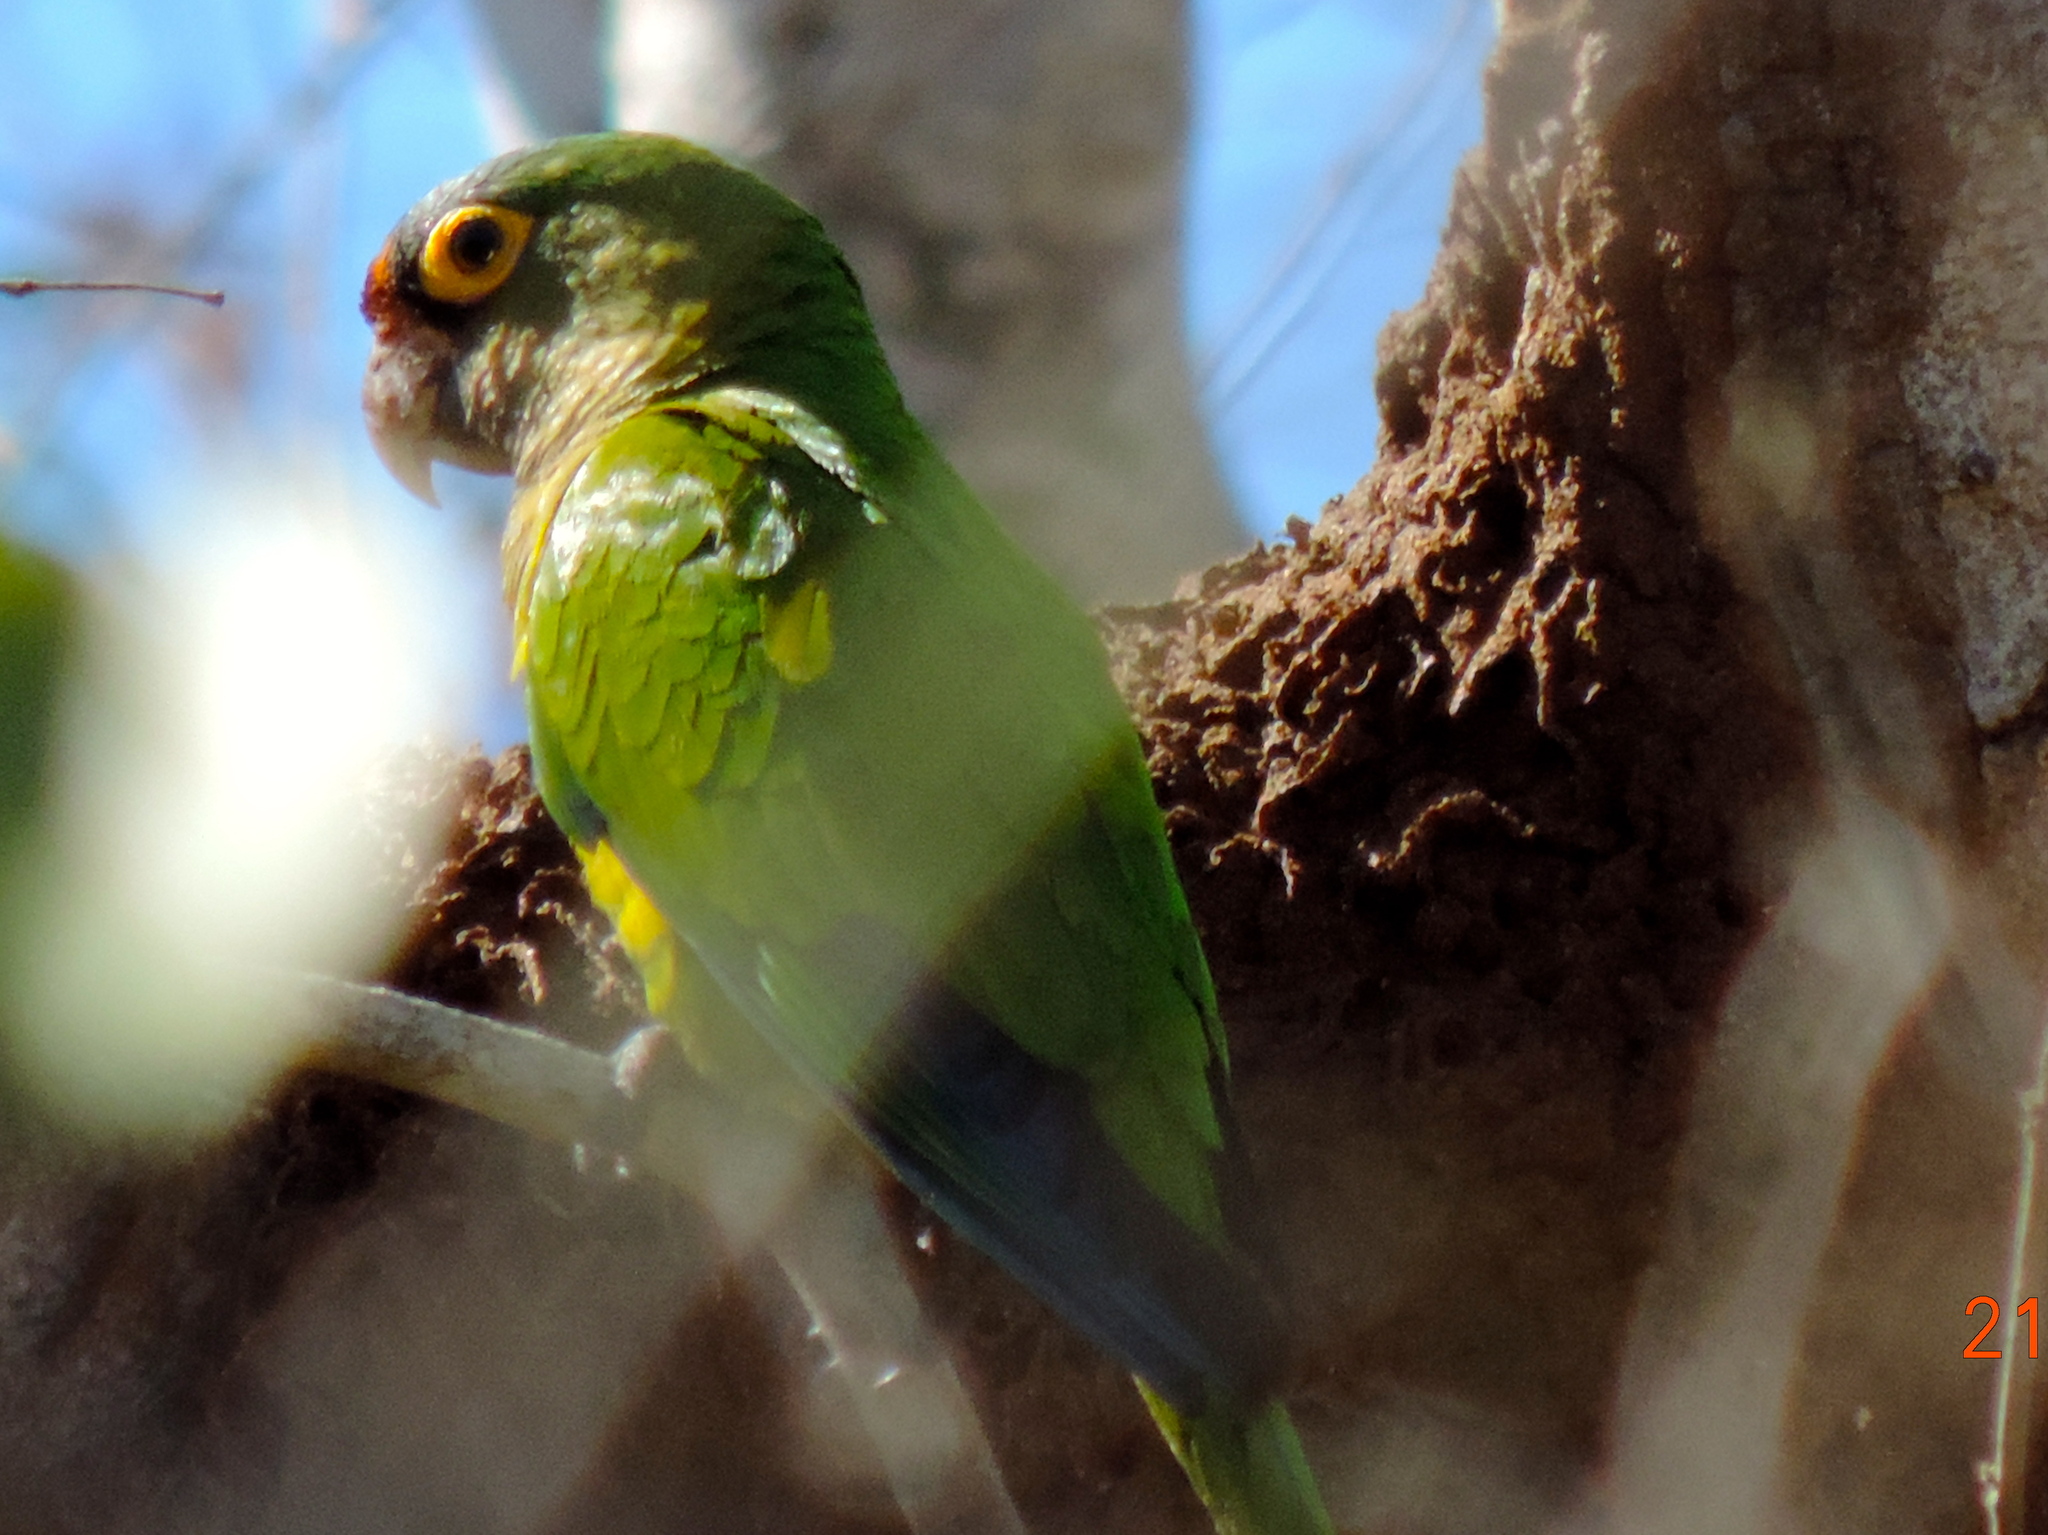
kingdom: Animalia
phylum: Chordata
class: Aves
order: Psittaciformes
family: Psittacidae
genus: Aratinga
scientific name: Aratinga canicularis
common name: Orange-fronted parakeet
